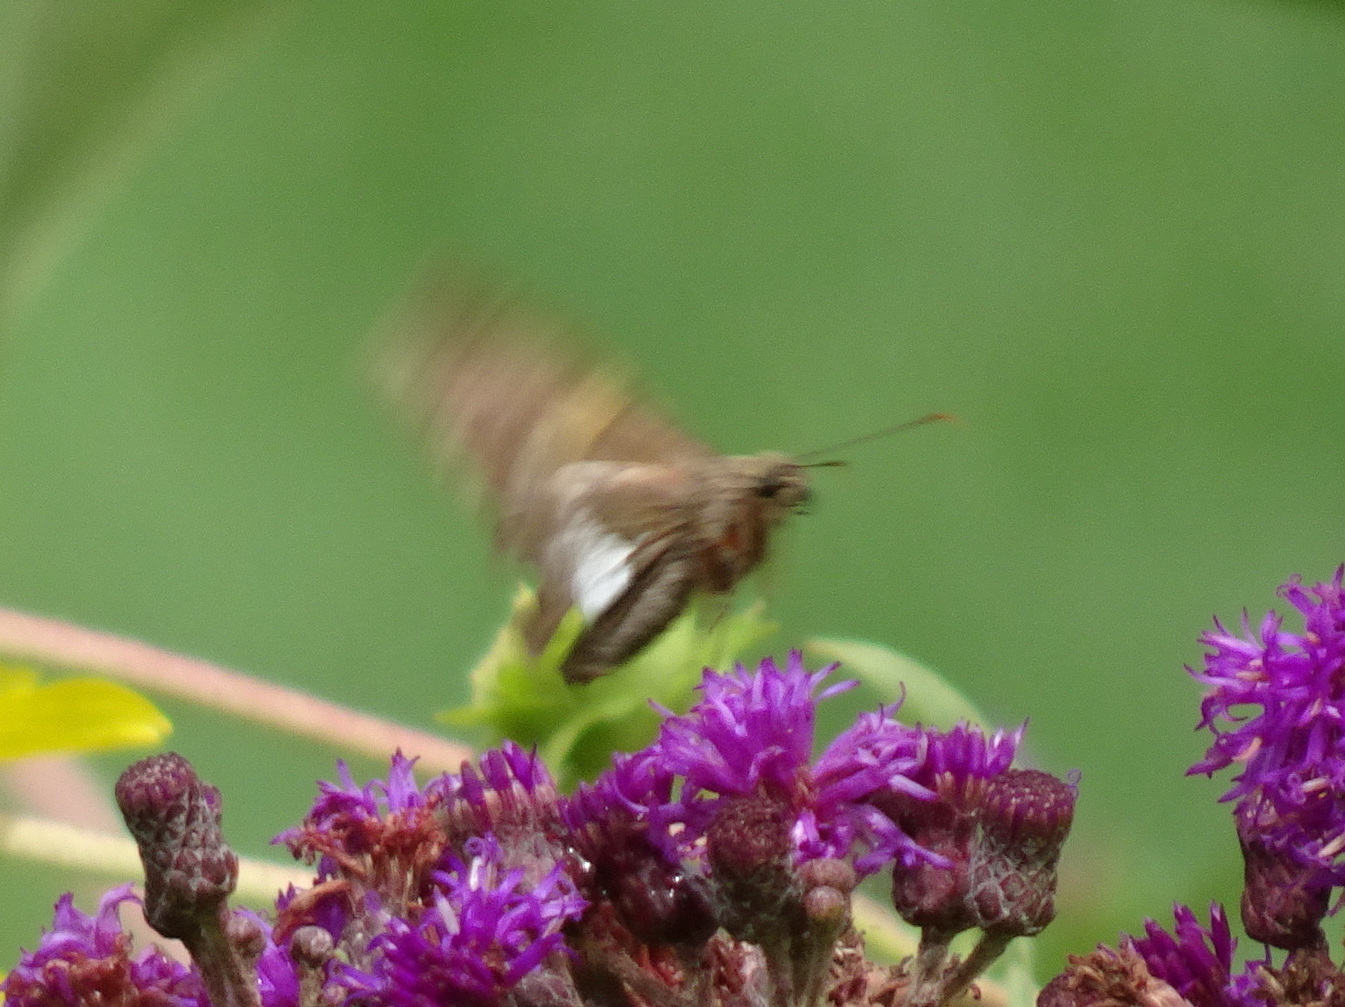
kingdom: Animalia
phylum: Arthropoda
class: Insecta
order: Lepidoptera
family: Hesperiidae
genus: Epargyreus
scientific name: Epargyreus clarus
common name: Silver-spotted skipper
